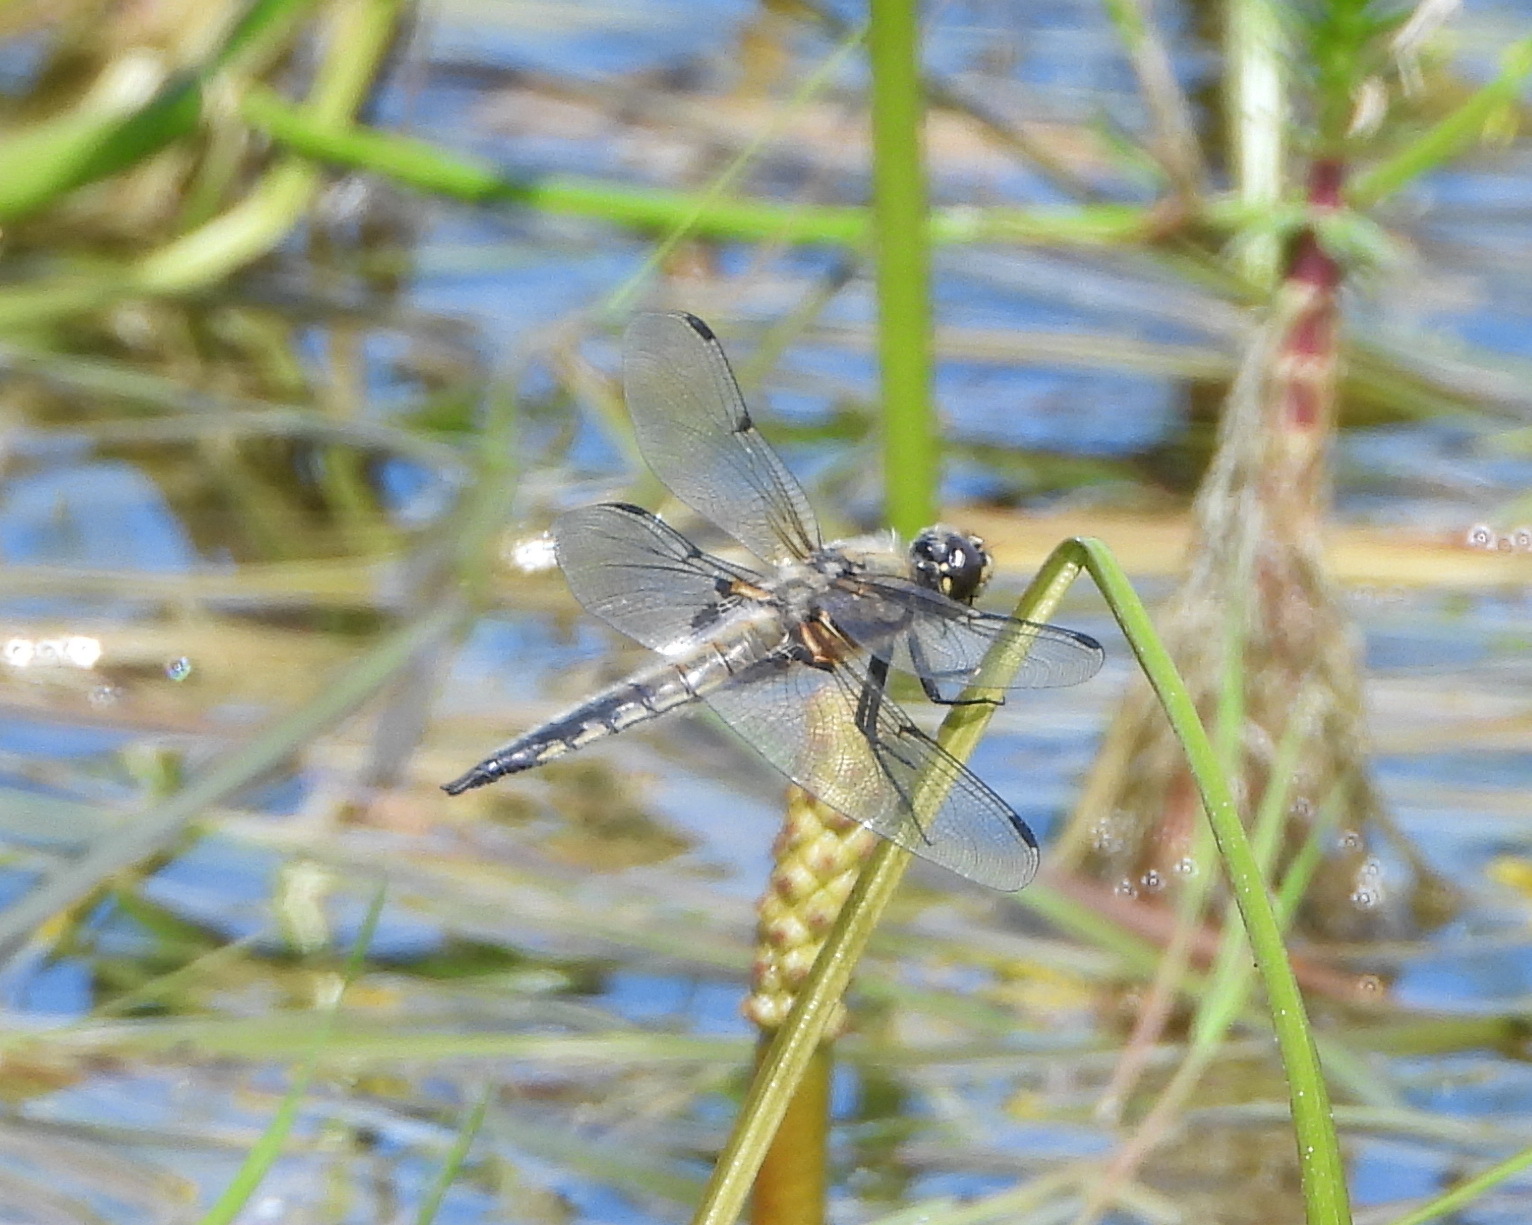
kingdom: Animalia
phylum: Arthropoda
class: Insecta
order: Odonata
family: Libellulidae
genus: Libellula
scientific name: Libellula quadrimaculata
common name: Four-spotted chaser
